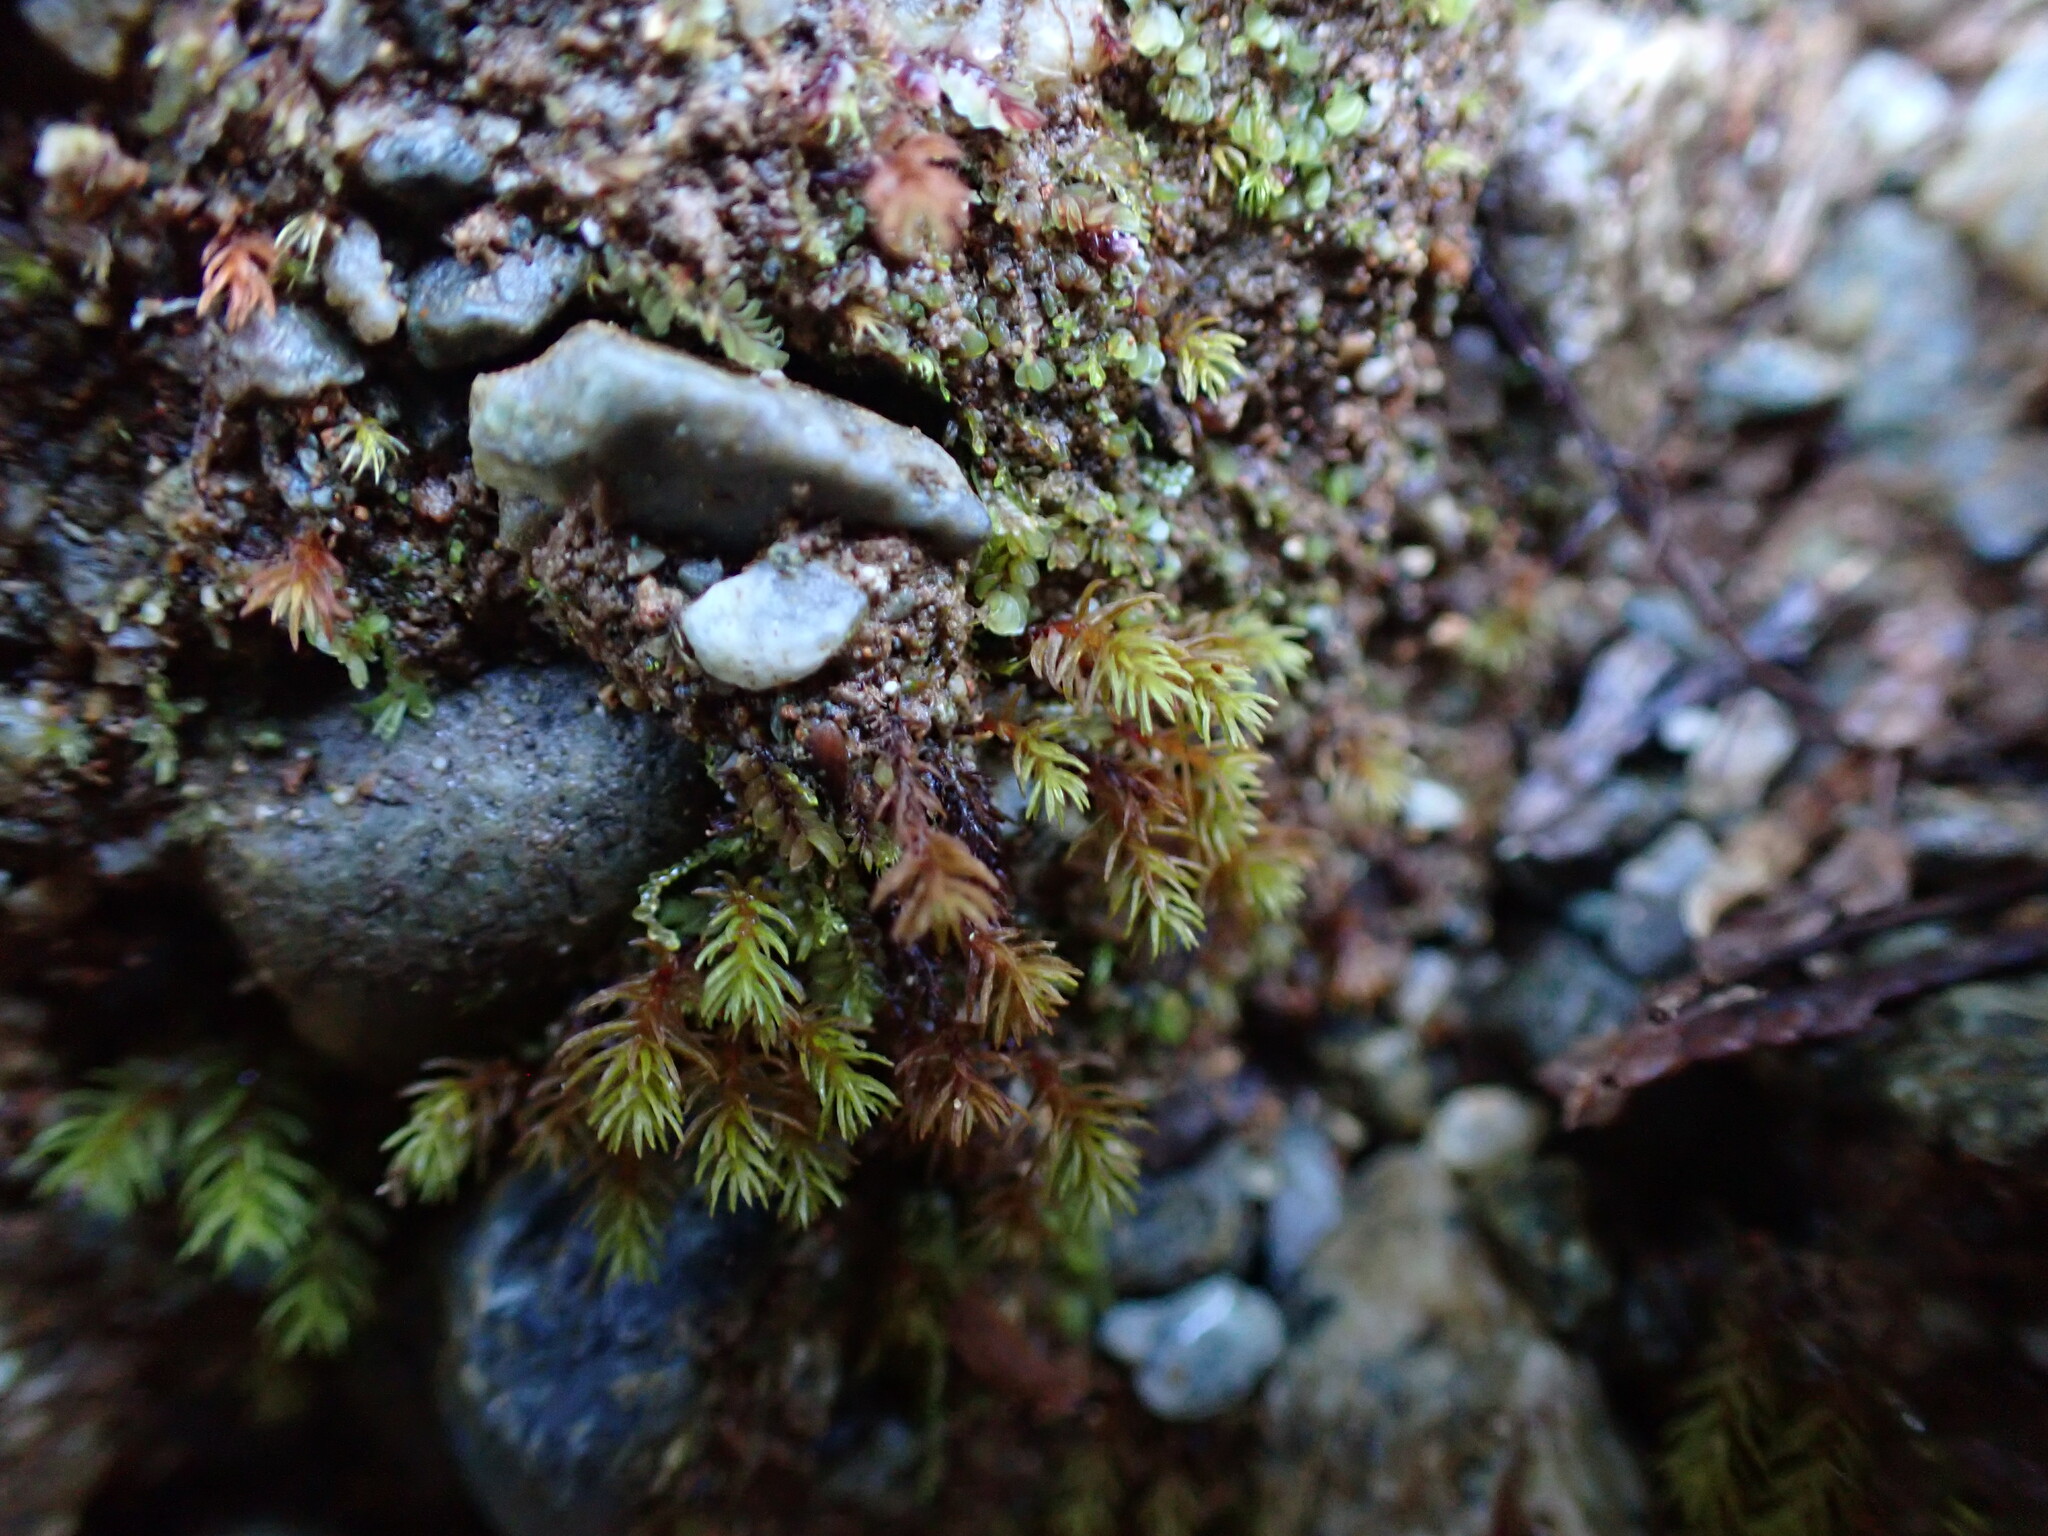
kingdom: Plantae
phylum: Bryophyta
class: Polytrichopsida
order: Polytrichales
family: Polytrichaceae
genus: Oligotrichum
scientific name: Oligotrichum aligerum
